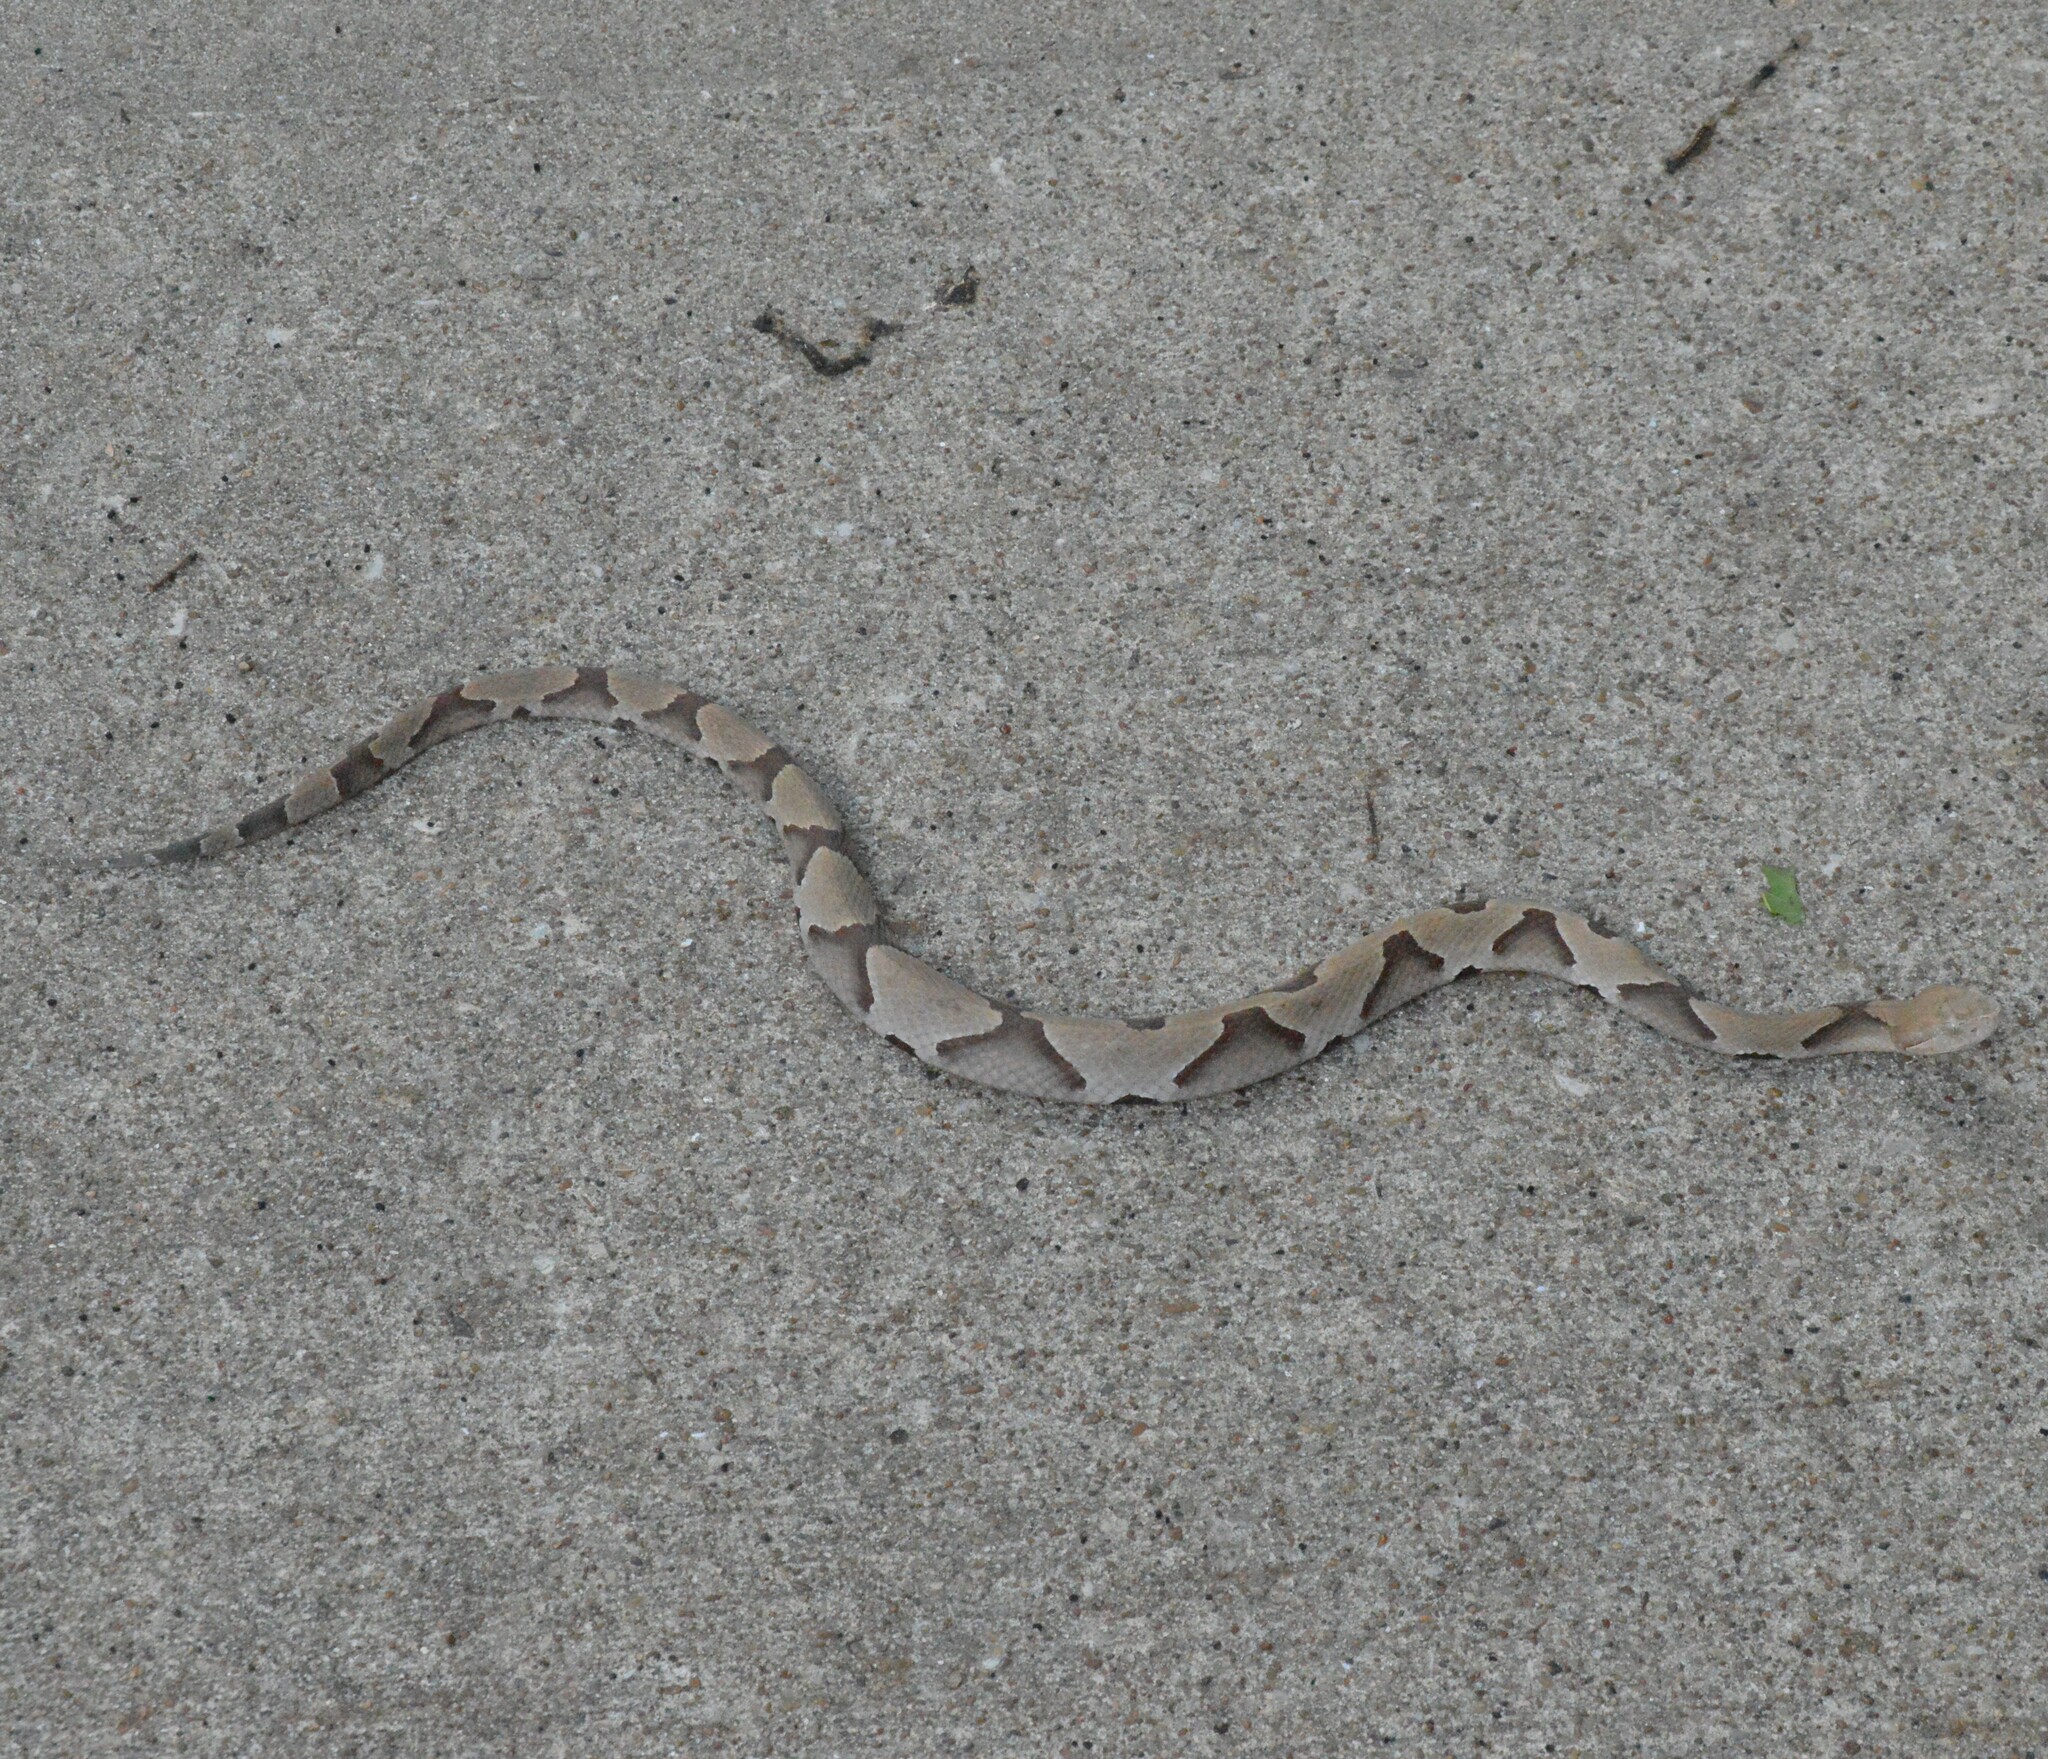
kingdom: Animalia
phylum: Chordata
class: Squamata
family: Viperidae
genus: Agkistrodon
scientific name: Agkistrodon contortrix
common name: Northern copperhead
